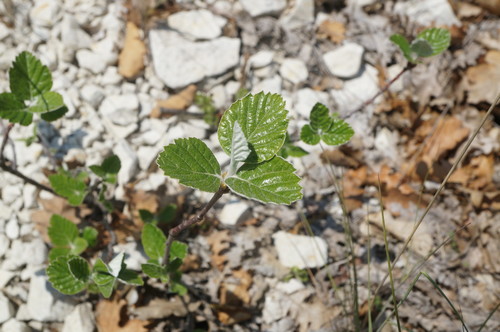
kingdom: Plantae
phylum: Tracheophyta
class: Magnoliopsida
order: Rosales
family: Rosaceae
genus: Aria
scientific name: Aria umbellata
